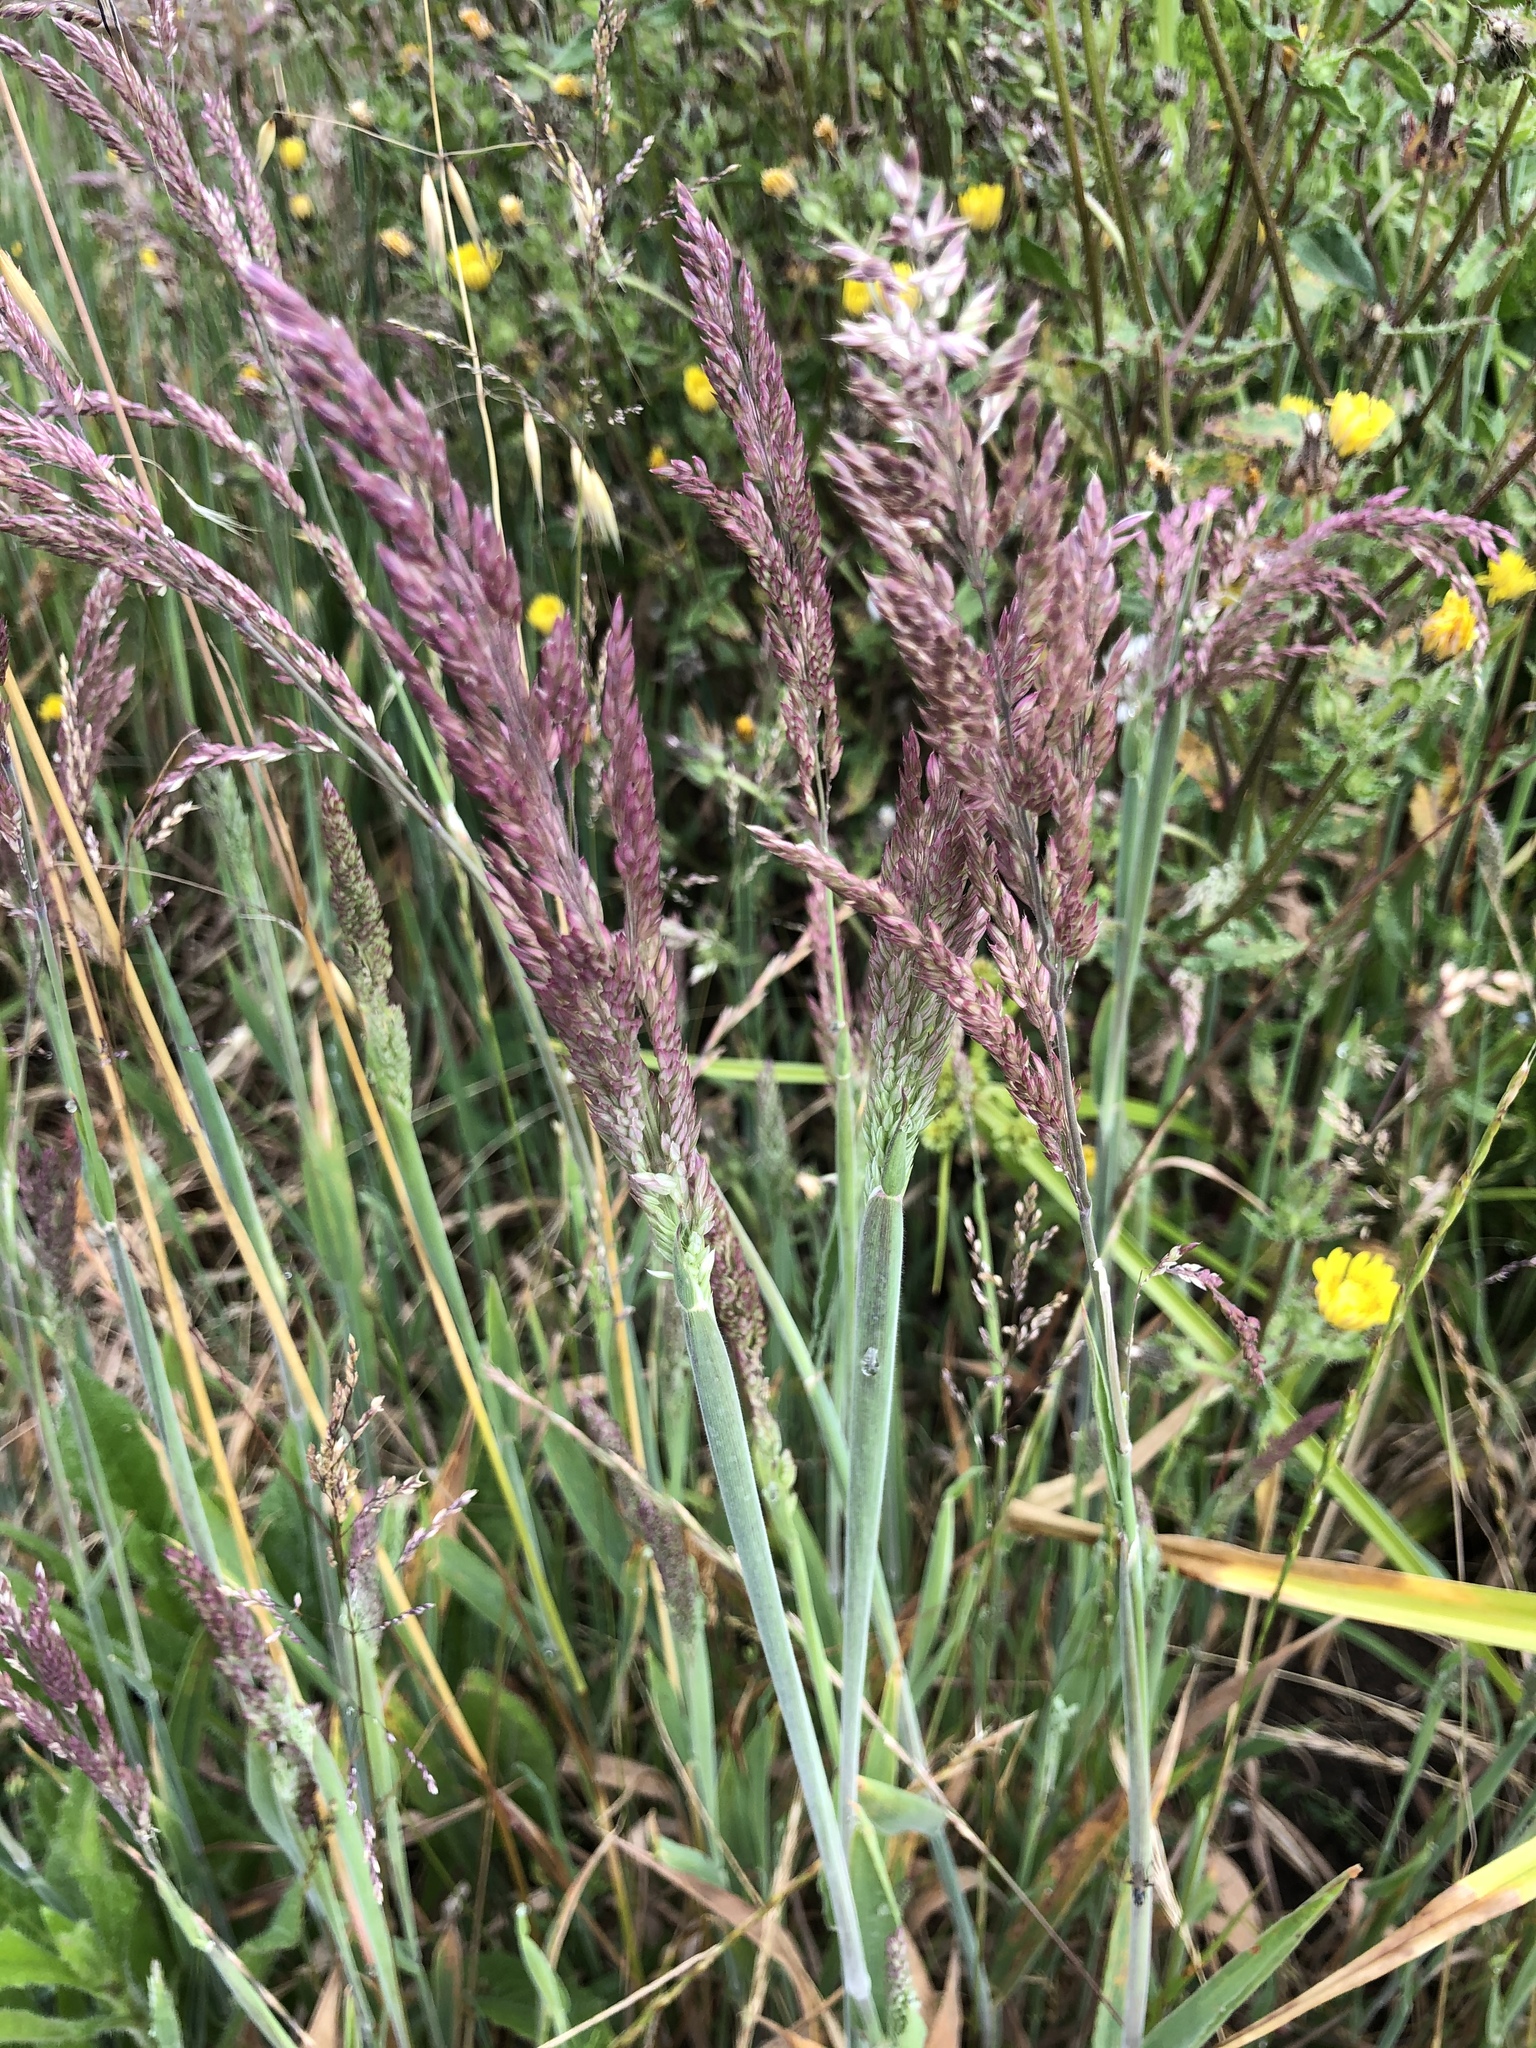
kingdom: Plantae
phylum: Tracheophyta
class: Liliopsida
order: Poales
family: Poaceae
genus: Holcus
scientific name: Holcus lanatus
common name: Yorkshire-fog
